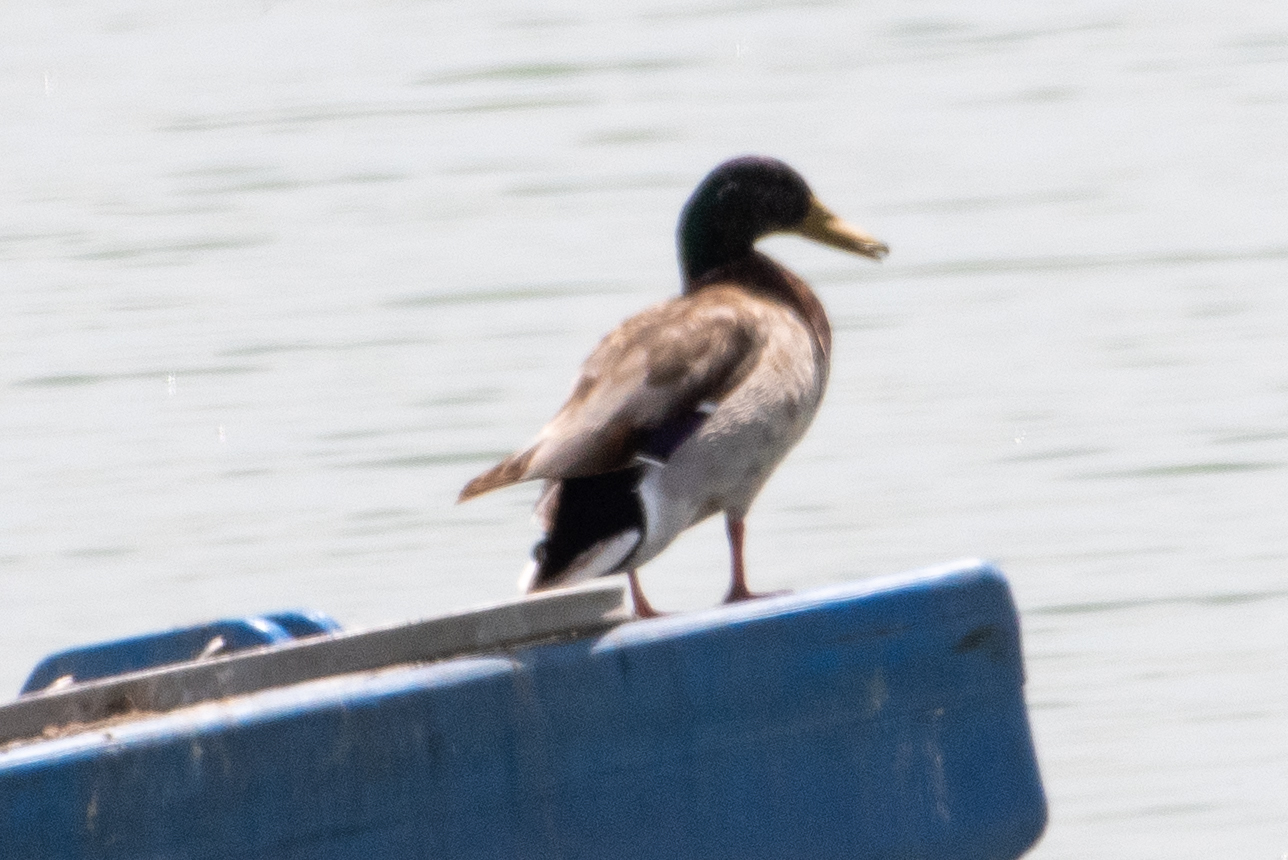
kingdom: Animalia
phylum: Chordata
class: Aves
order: Anseriformes
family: Anatidae
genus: Anas
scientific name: Anas platyrhynchos
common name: Mallard
